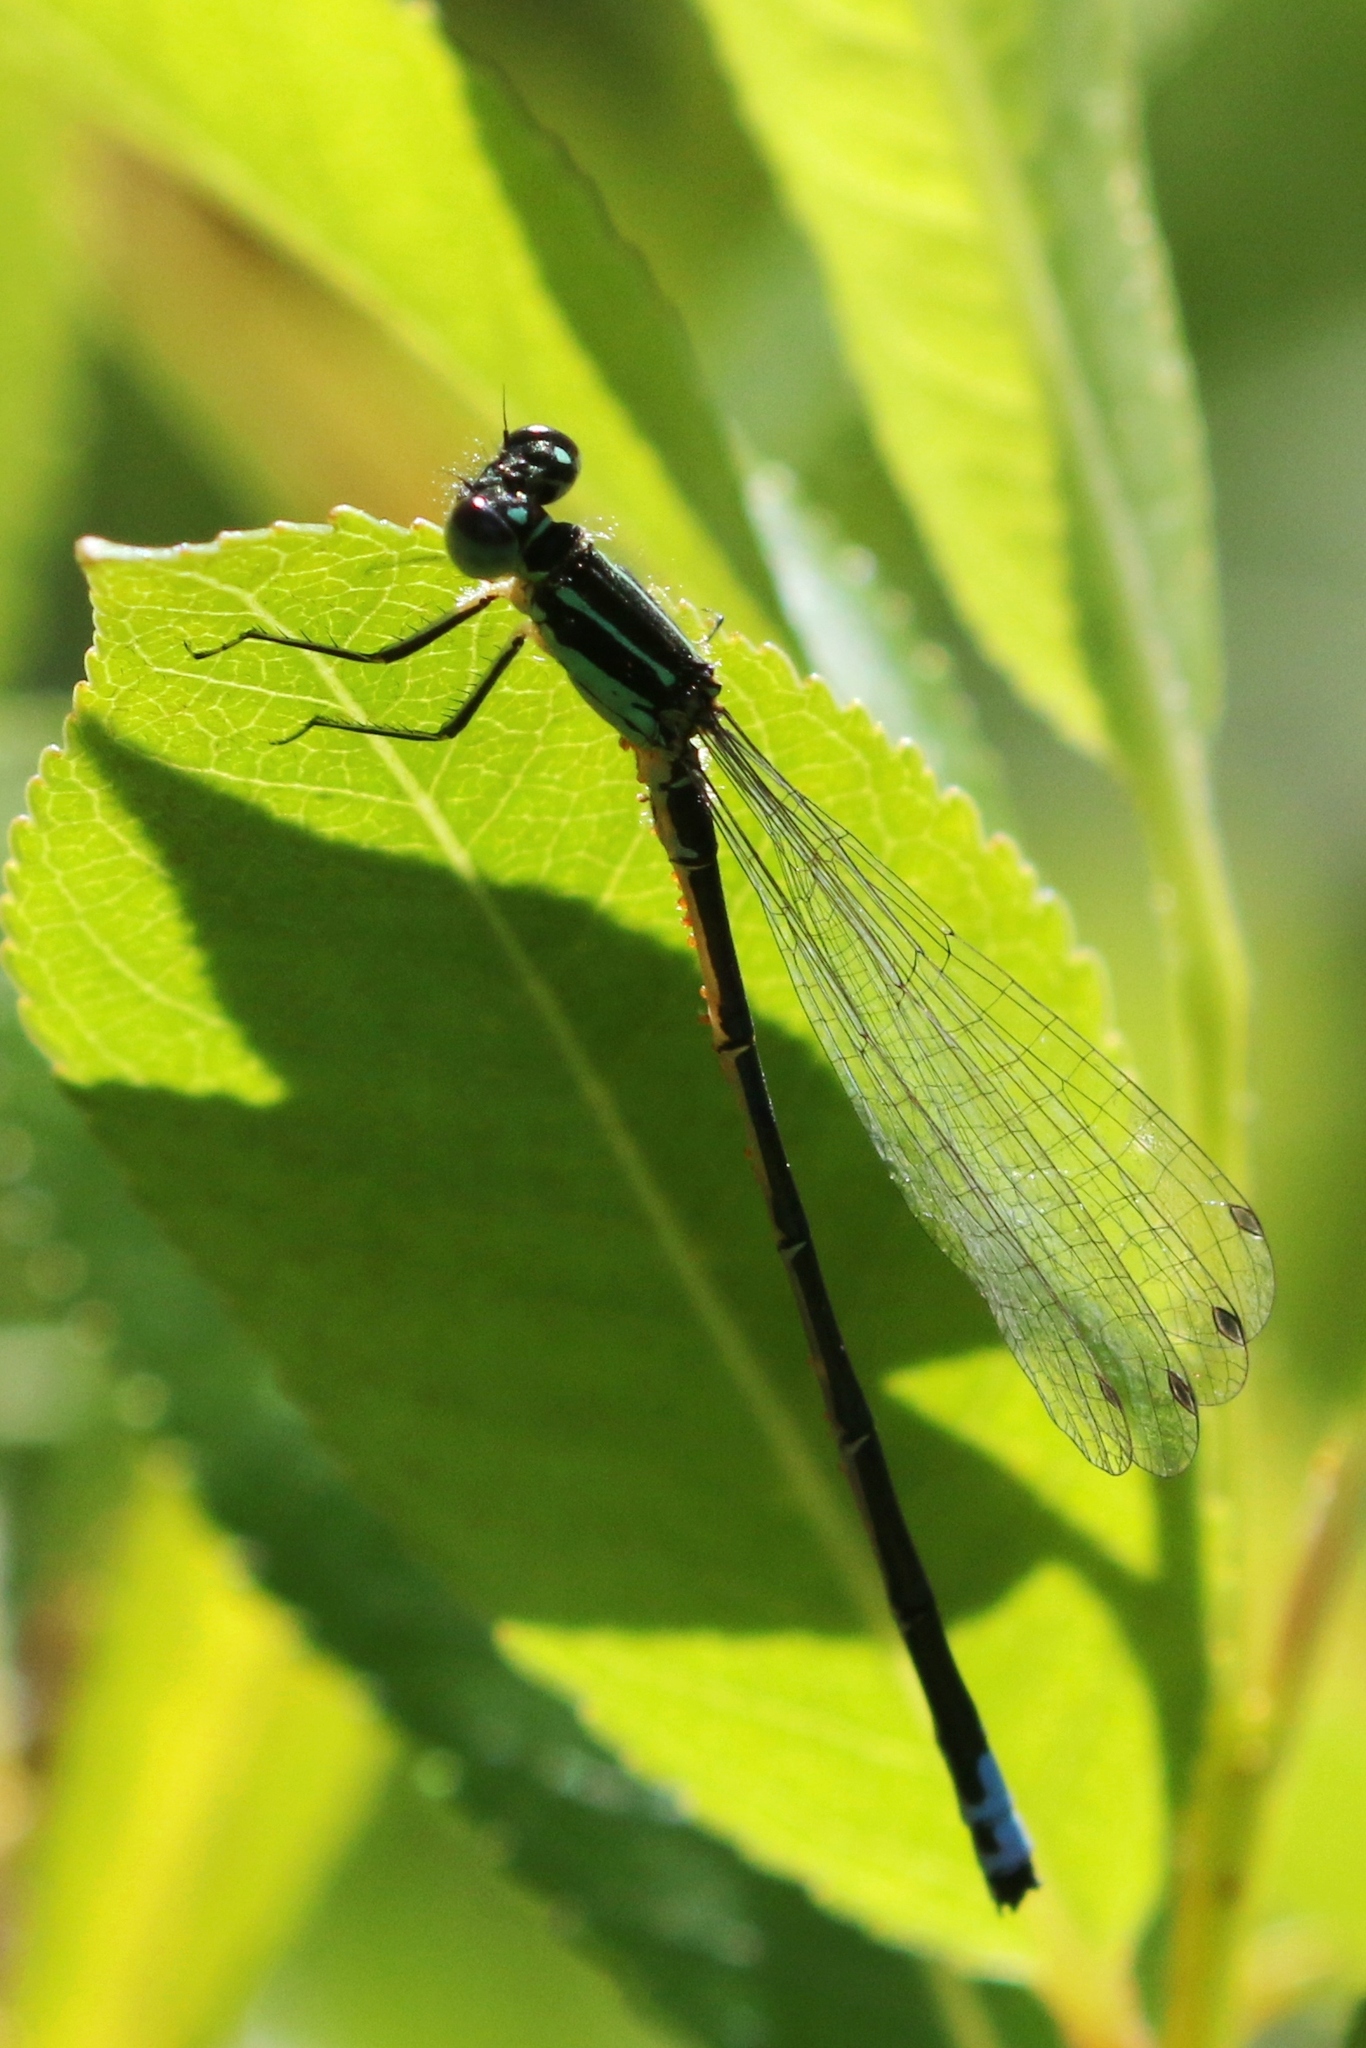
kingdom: Animalia
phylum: Arthropoda
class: Insecta
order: Odonata
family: Coenagrionidae
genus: Ischnura
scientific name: Ischnura verticalis
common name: Eastern forktail
